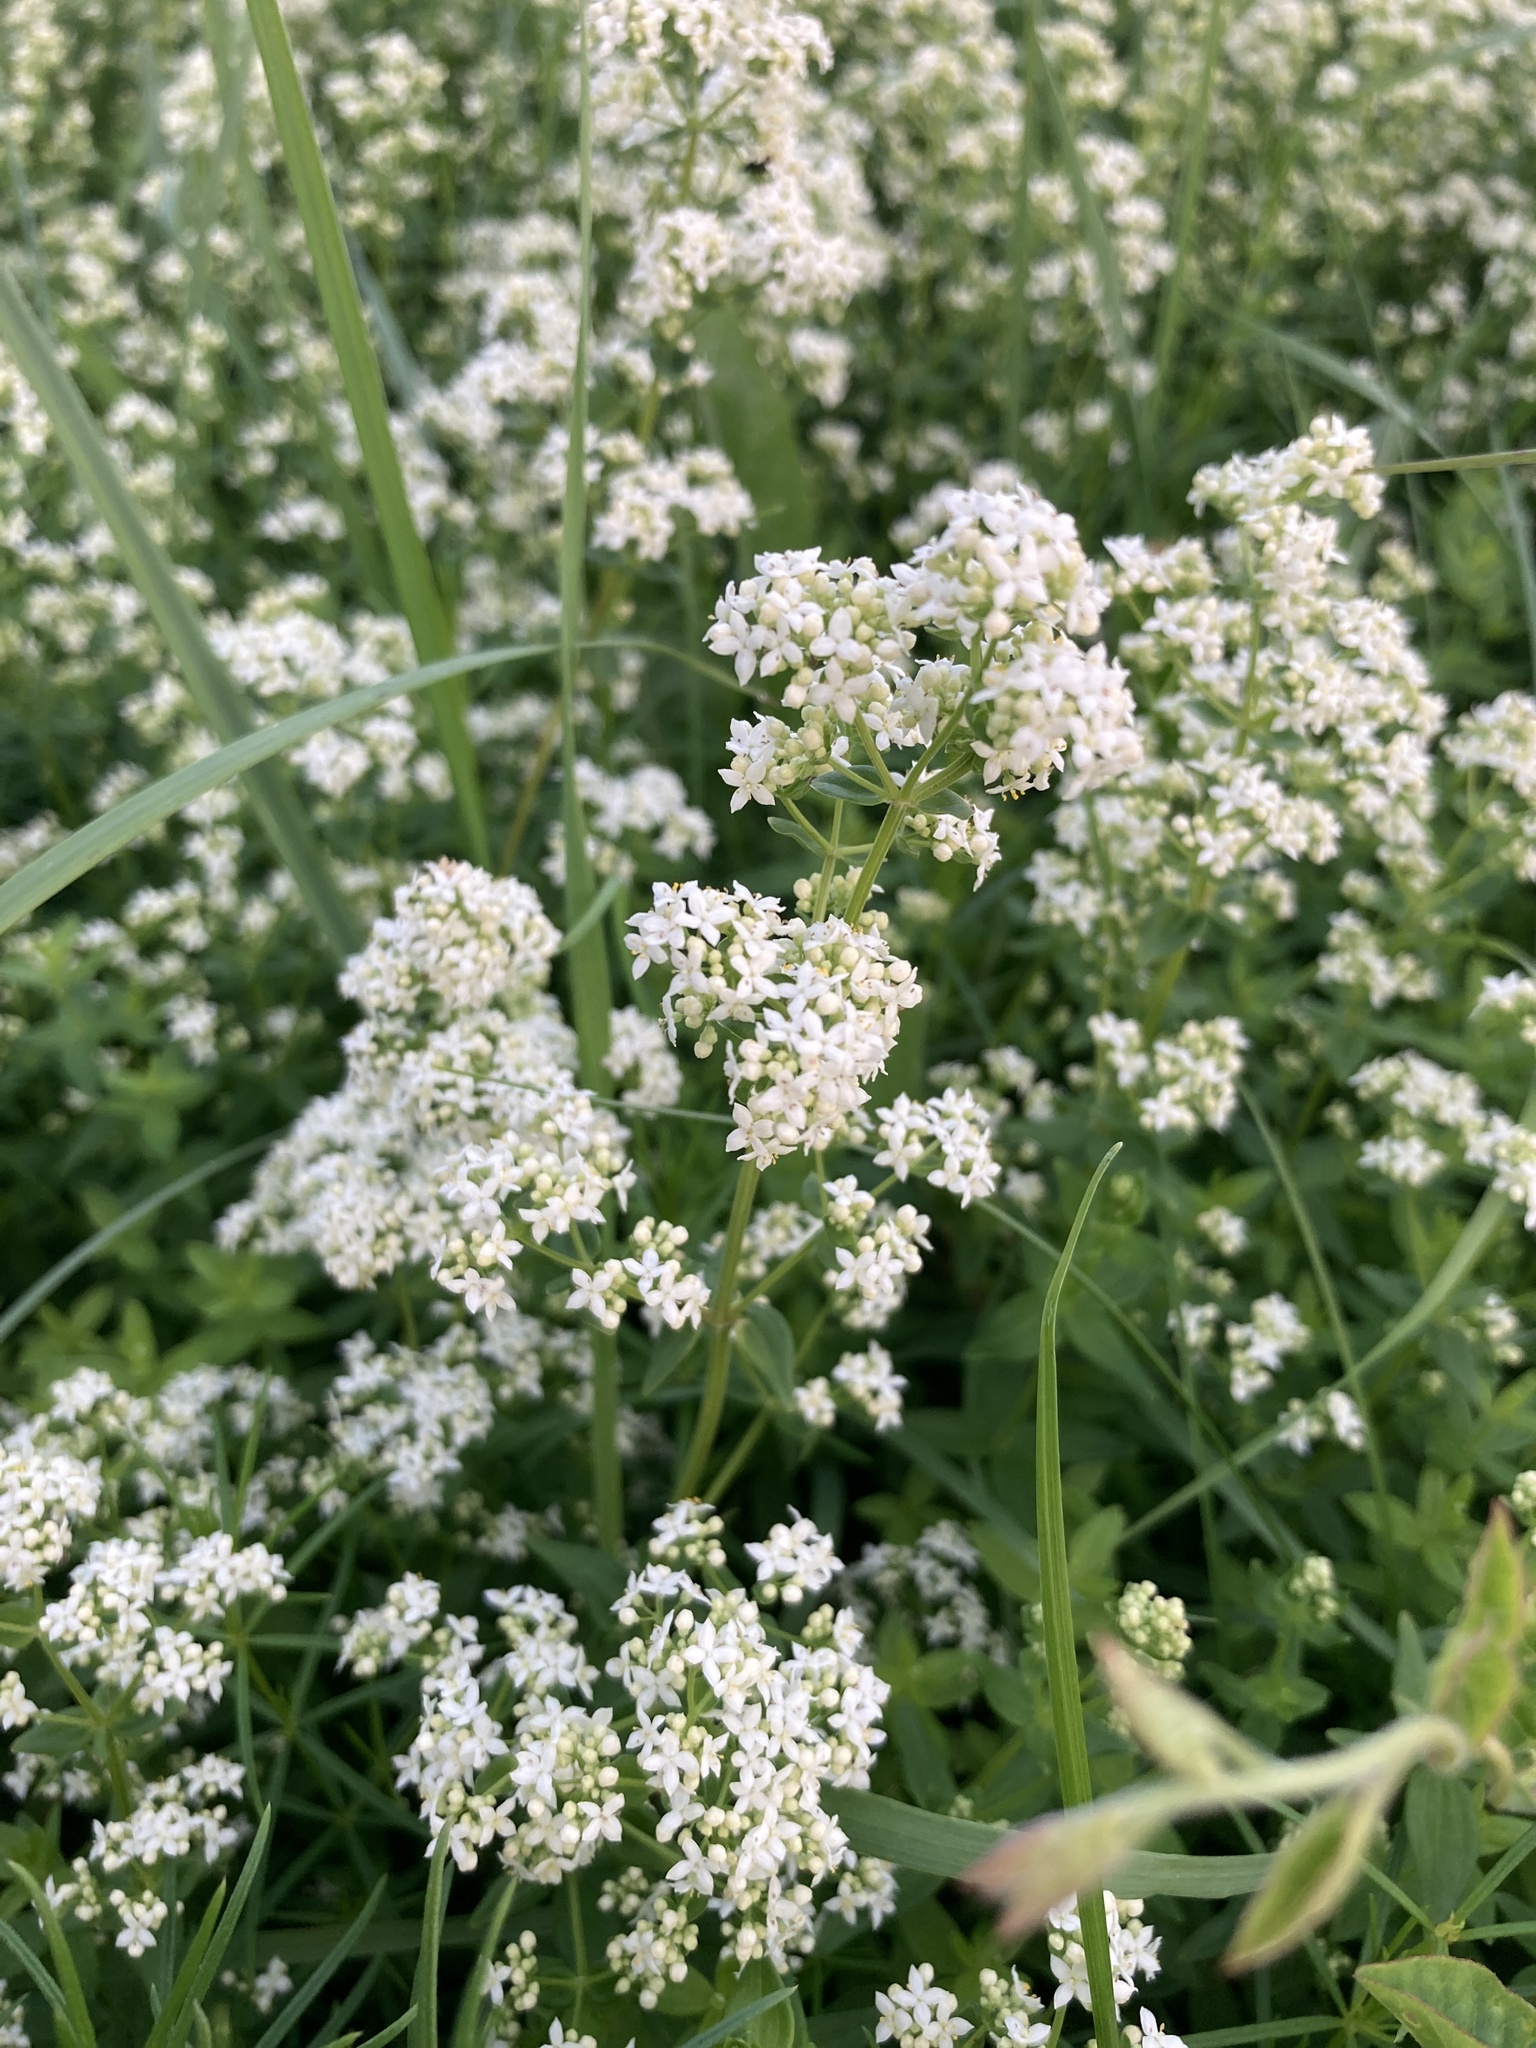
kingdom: Plantae
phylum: Tracheophyta
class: Magnoliopsida
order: Gentianales
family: Rubiaceae
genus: Galium
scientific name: Galium boreale
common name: Northern bedstraw
